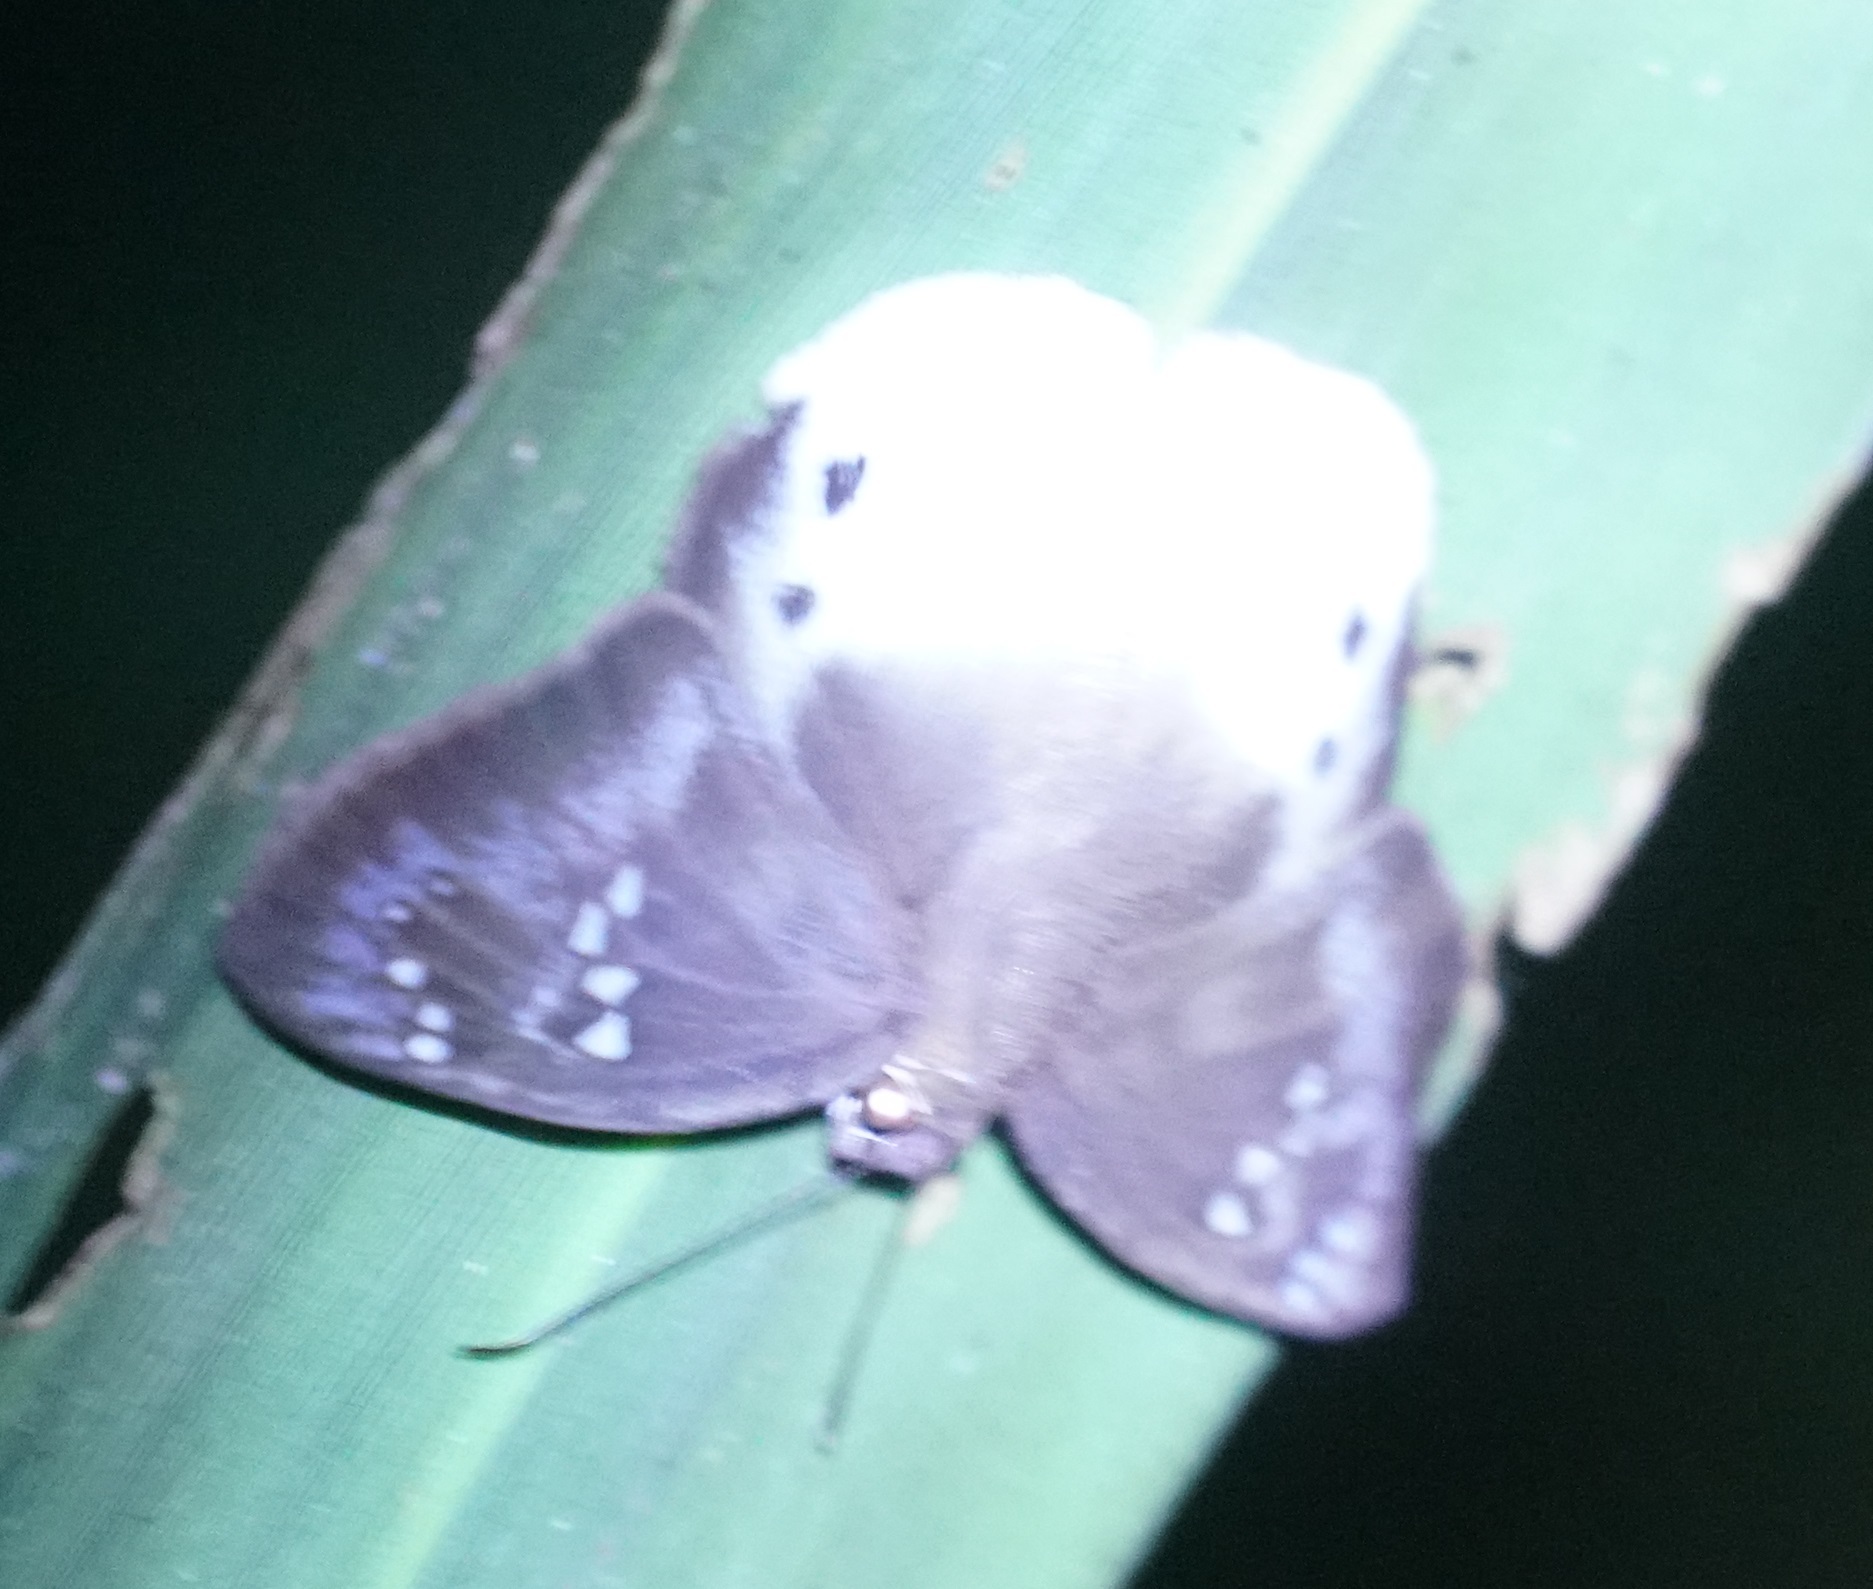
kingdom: Animalia
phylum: Arthropoda
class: Insecta
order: Lepidoptera
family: Hesperiidae
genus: Tagiades
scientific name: Tagiades japetus
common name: Pied flat
